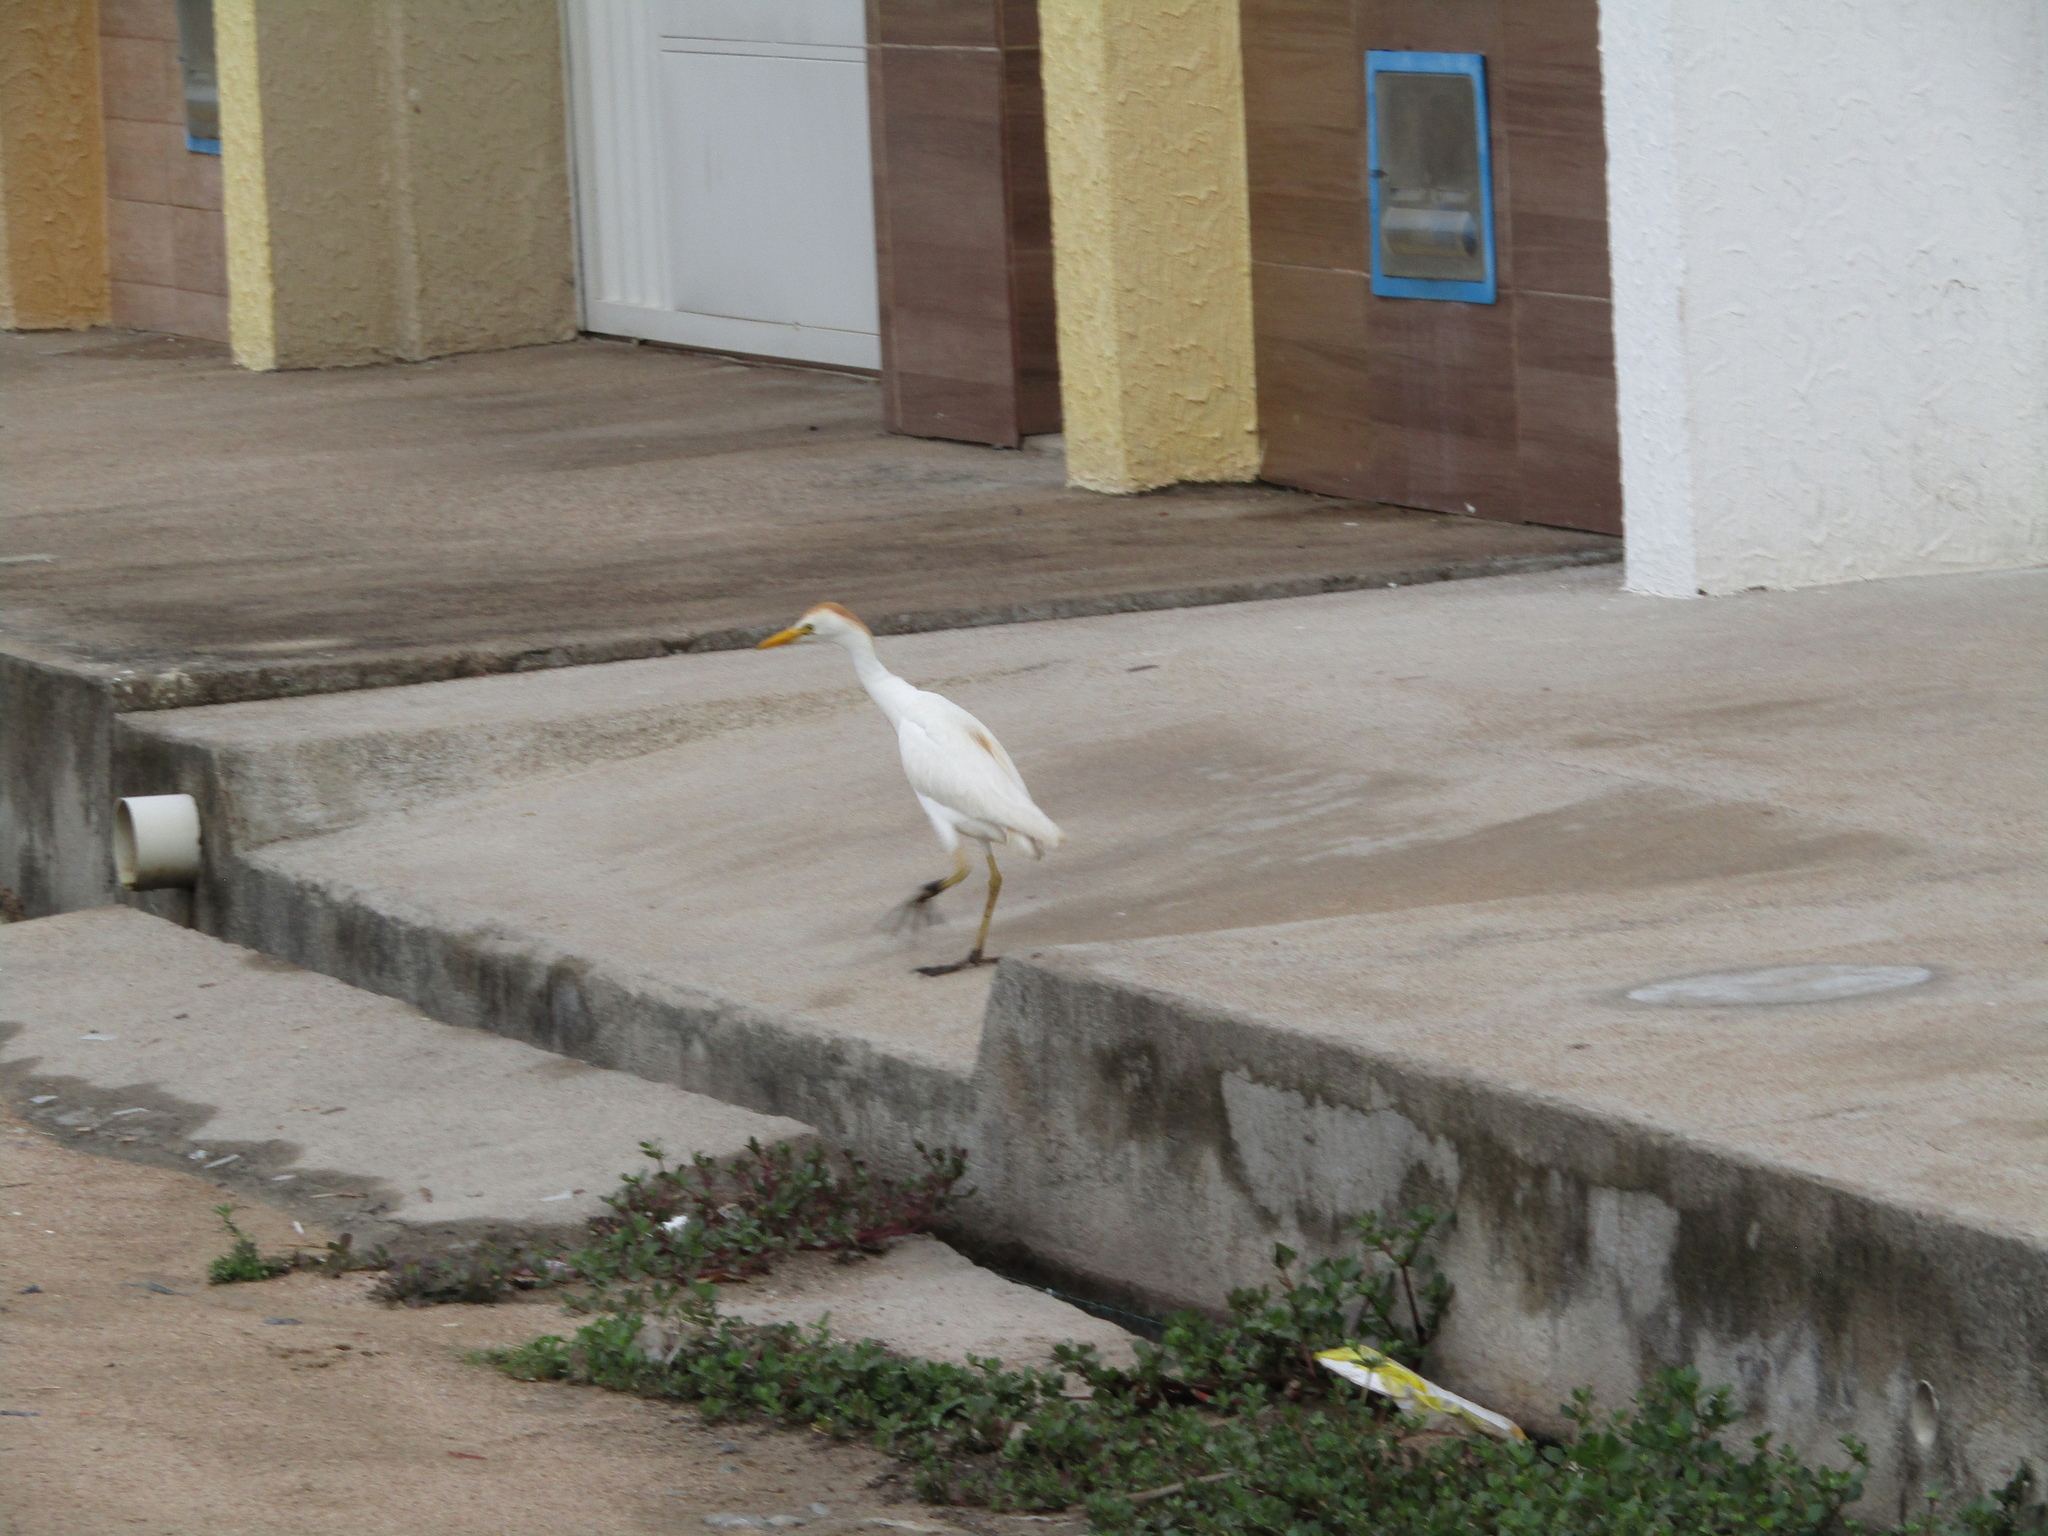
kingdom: Animalia
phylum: Chordata
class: Aves
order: Pelecaniformes
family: Ardeidae
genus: Bubulcus
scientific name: Bubulcus ibis
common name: Cattle egret
